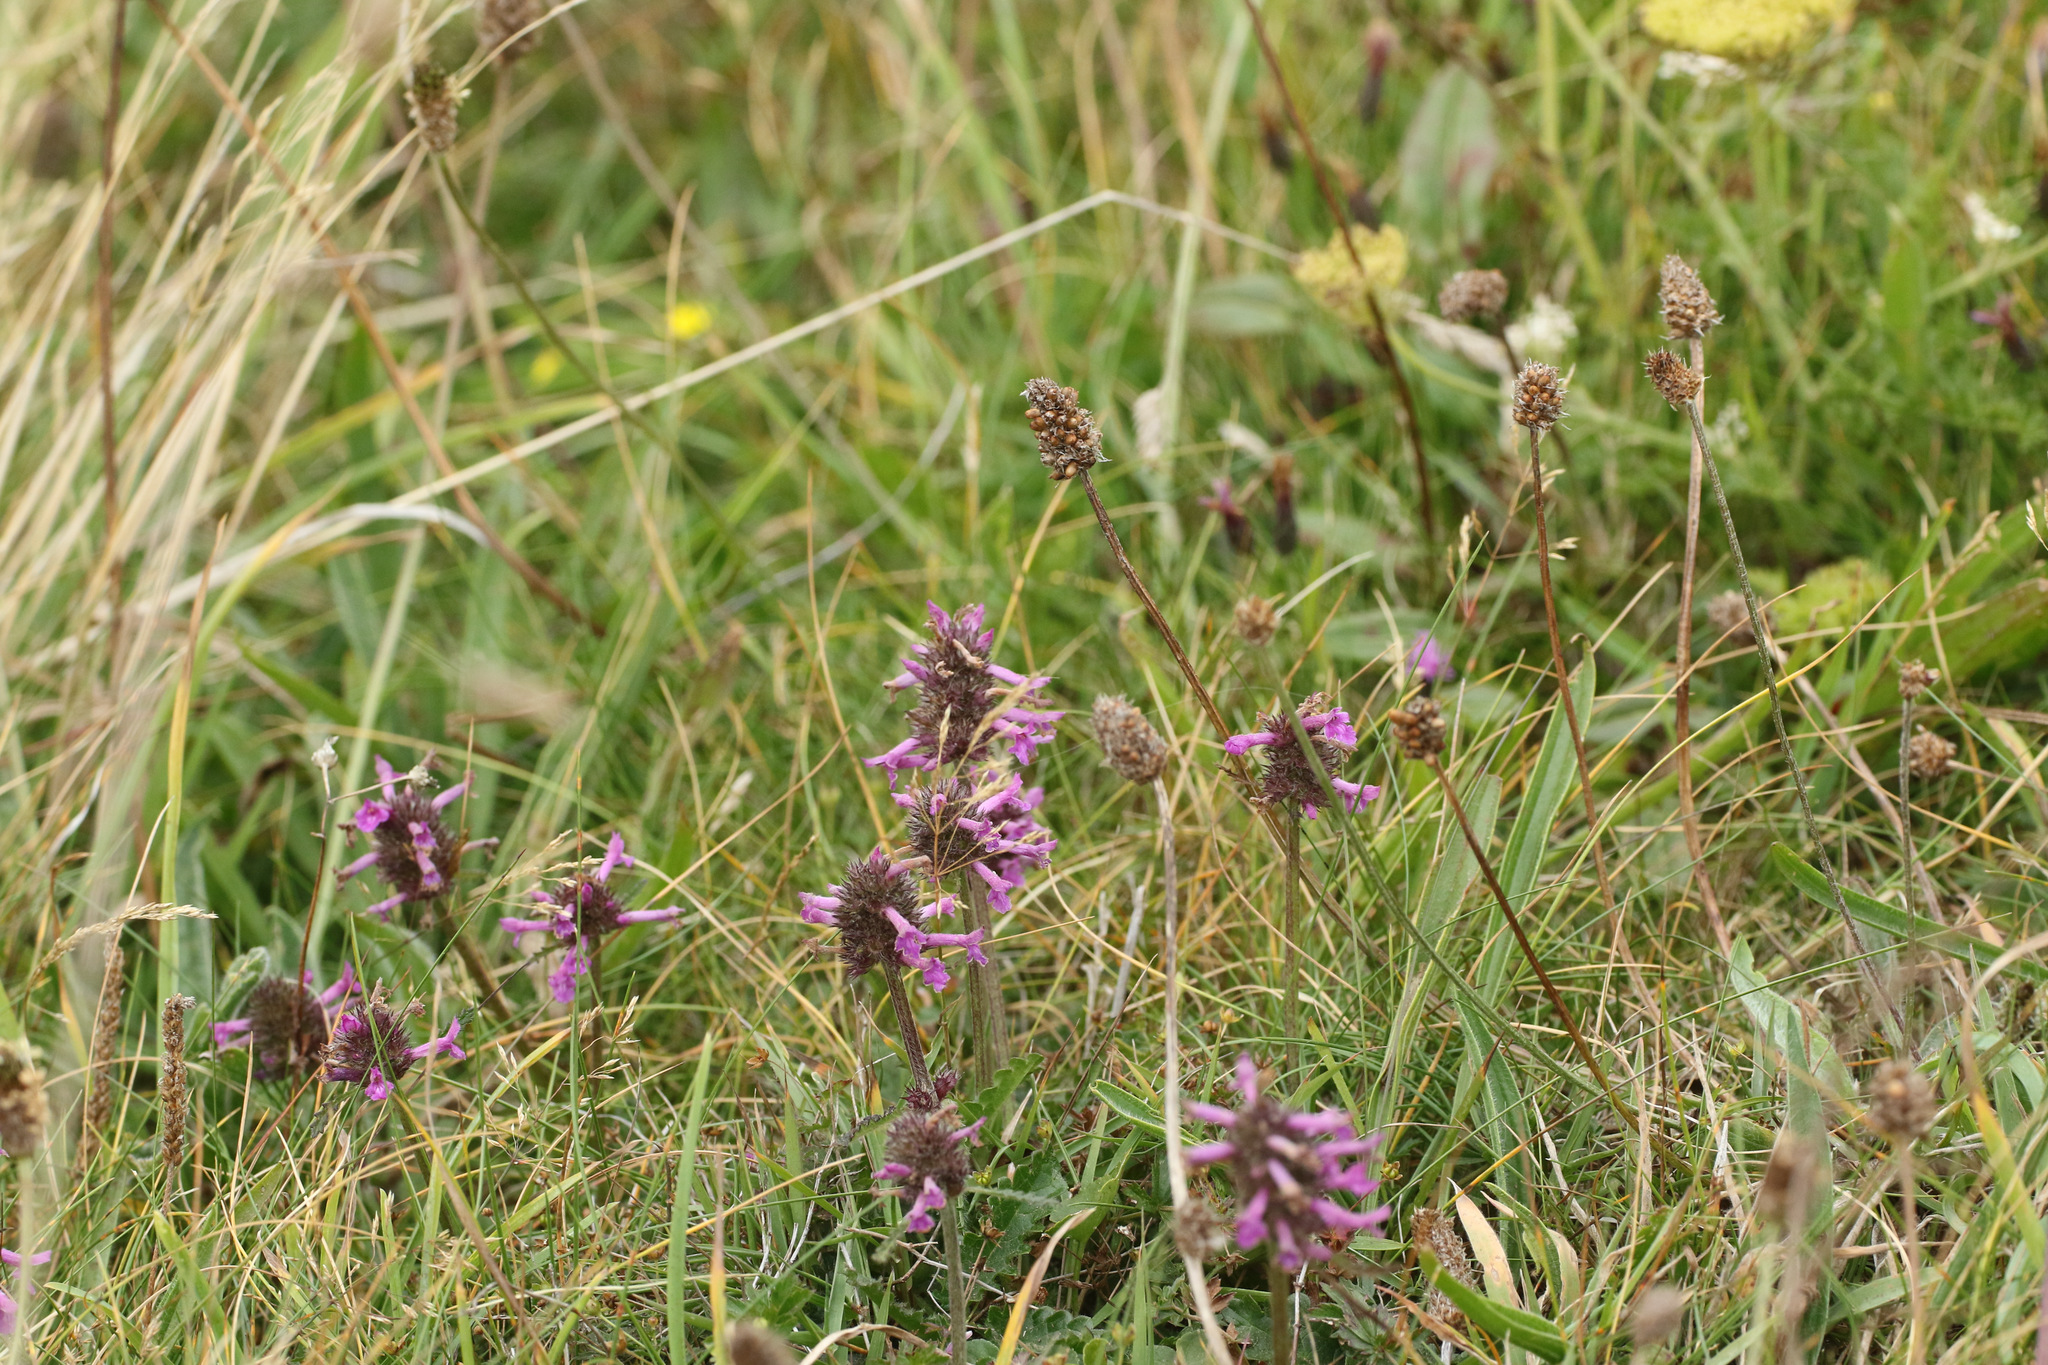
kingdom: Plantae
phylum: Tracheophyta
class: Magnoliopsida
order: Lamiales
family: Lamiaceae
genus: Betonica
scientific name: Betonica officinalis
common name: Bishop's-wort
